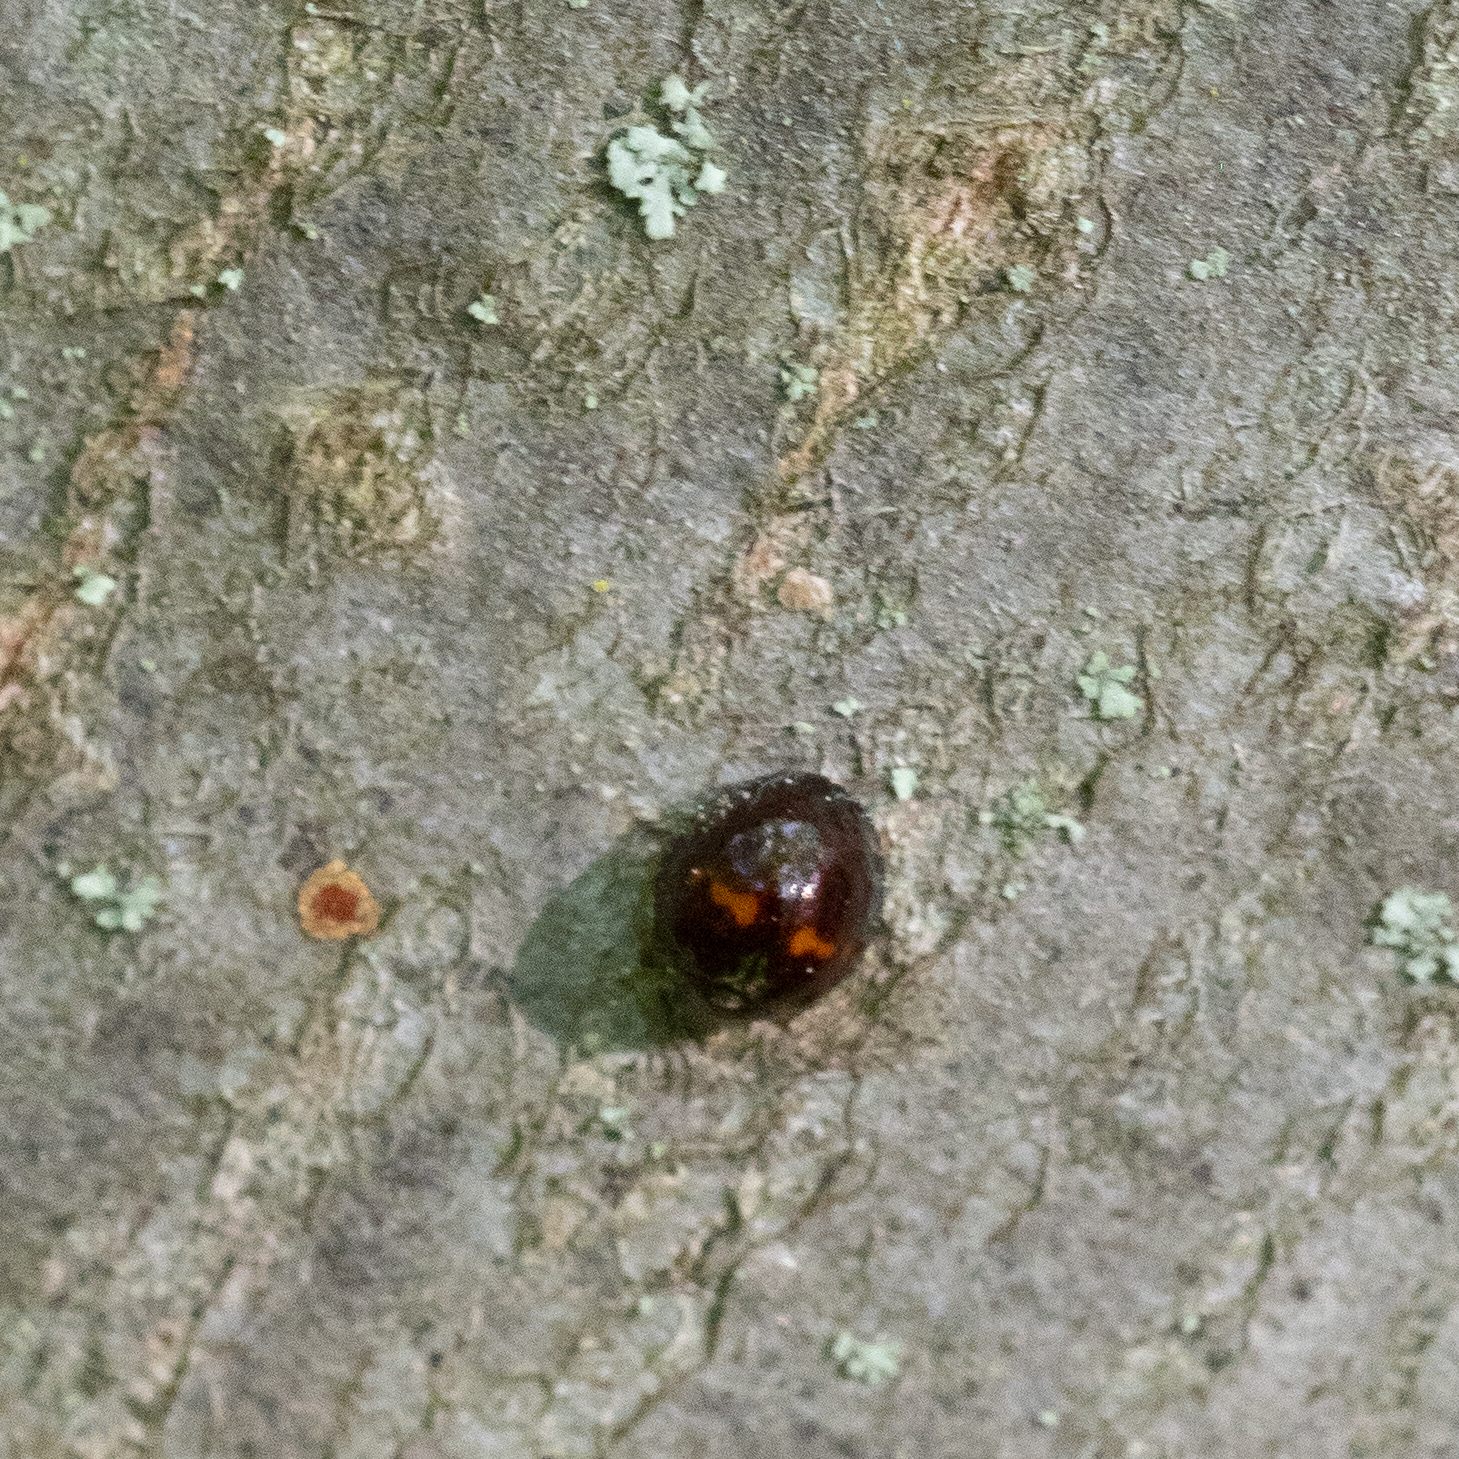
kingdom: Animalia
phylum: Arthropoda
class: Insecta
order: Coleoptera
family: Coccinellidae
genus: Chilocorus
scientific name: Chilocorus bipustulatus
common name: Heather ladybird
